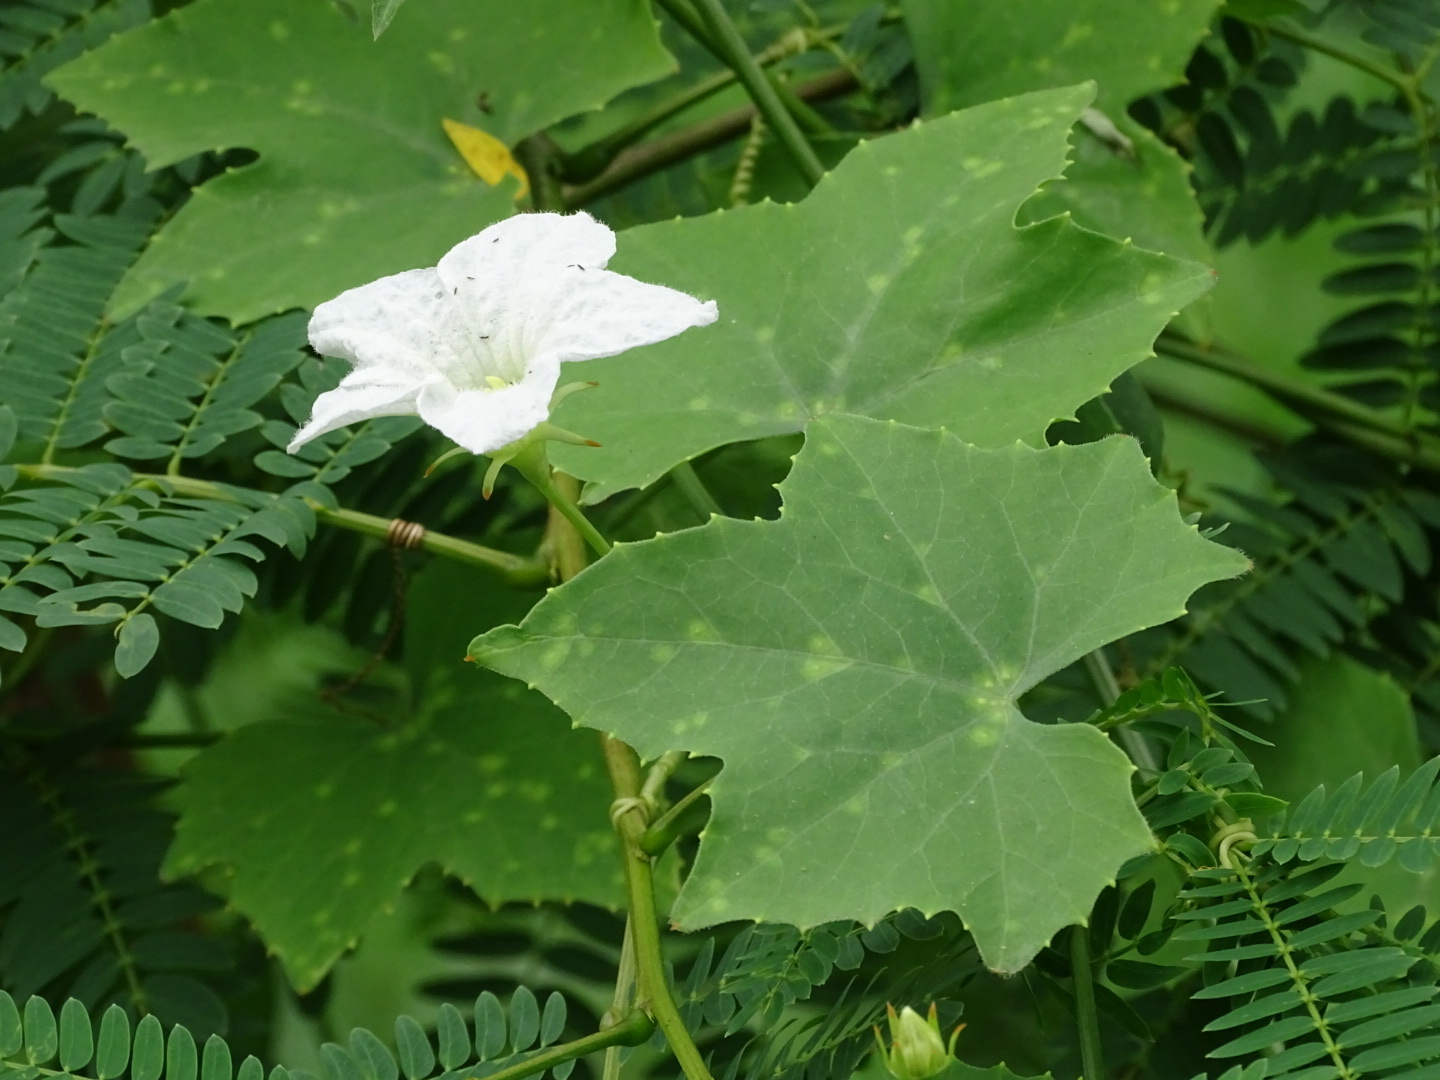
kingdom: Plantae
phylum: Tracheophyta
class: Magnoliopsida
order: Cucurbitales
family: Cucurbitaceae
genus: Coccinia
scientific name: Coccinia grandis
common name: Ivy gourd
